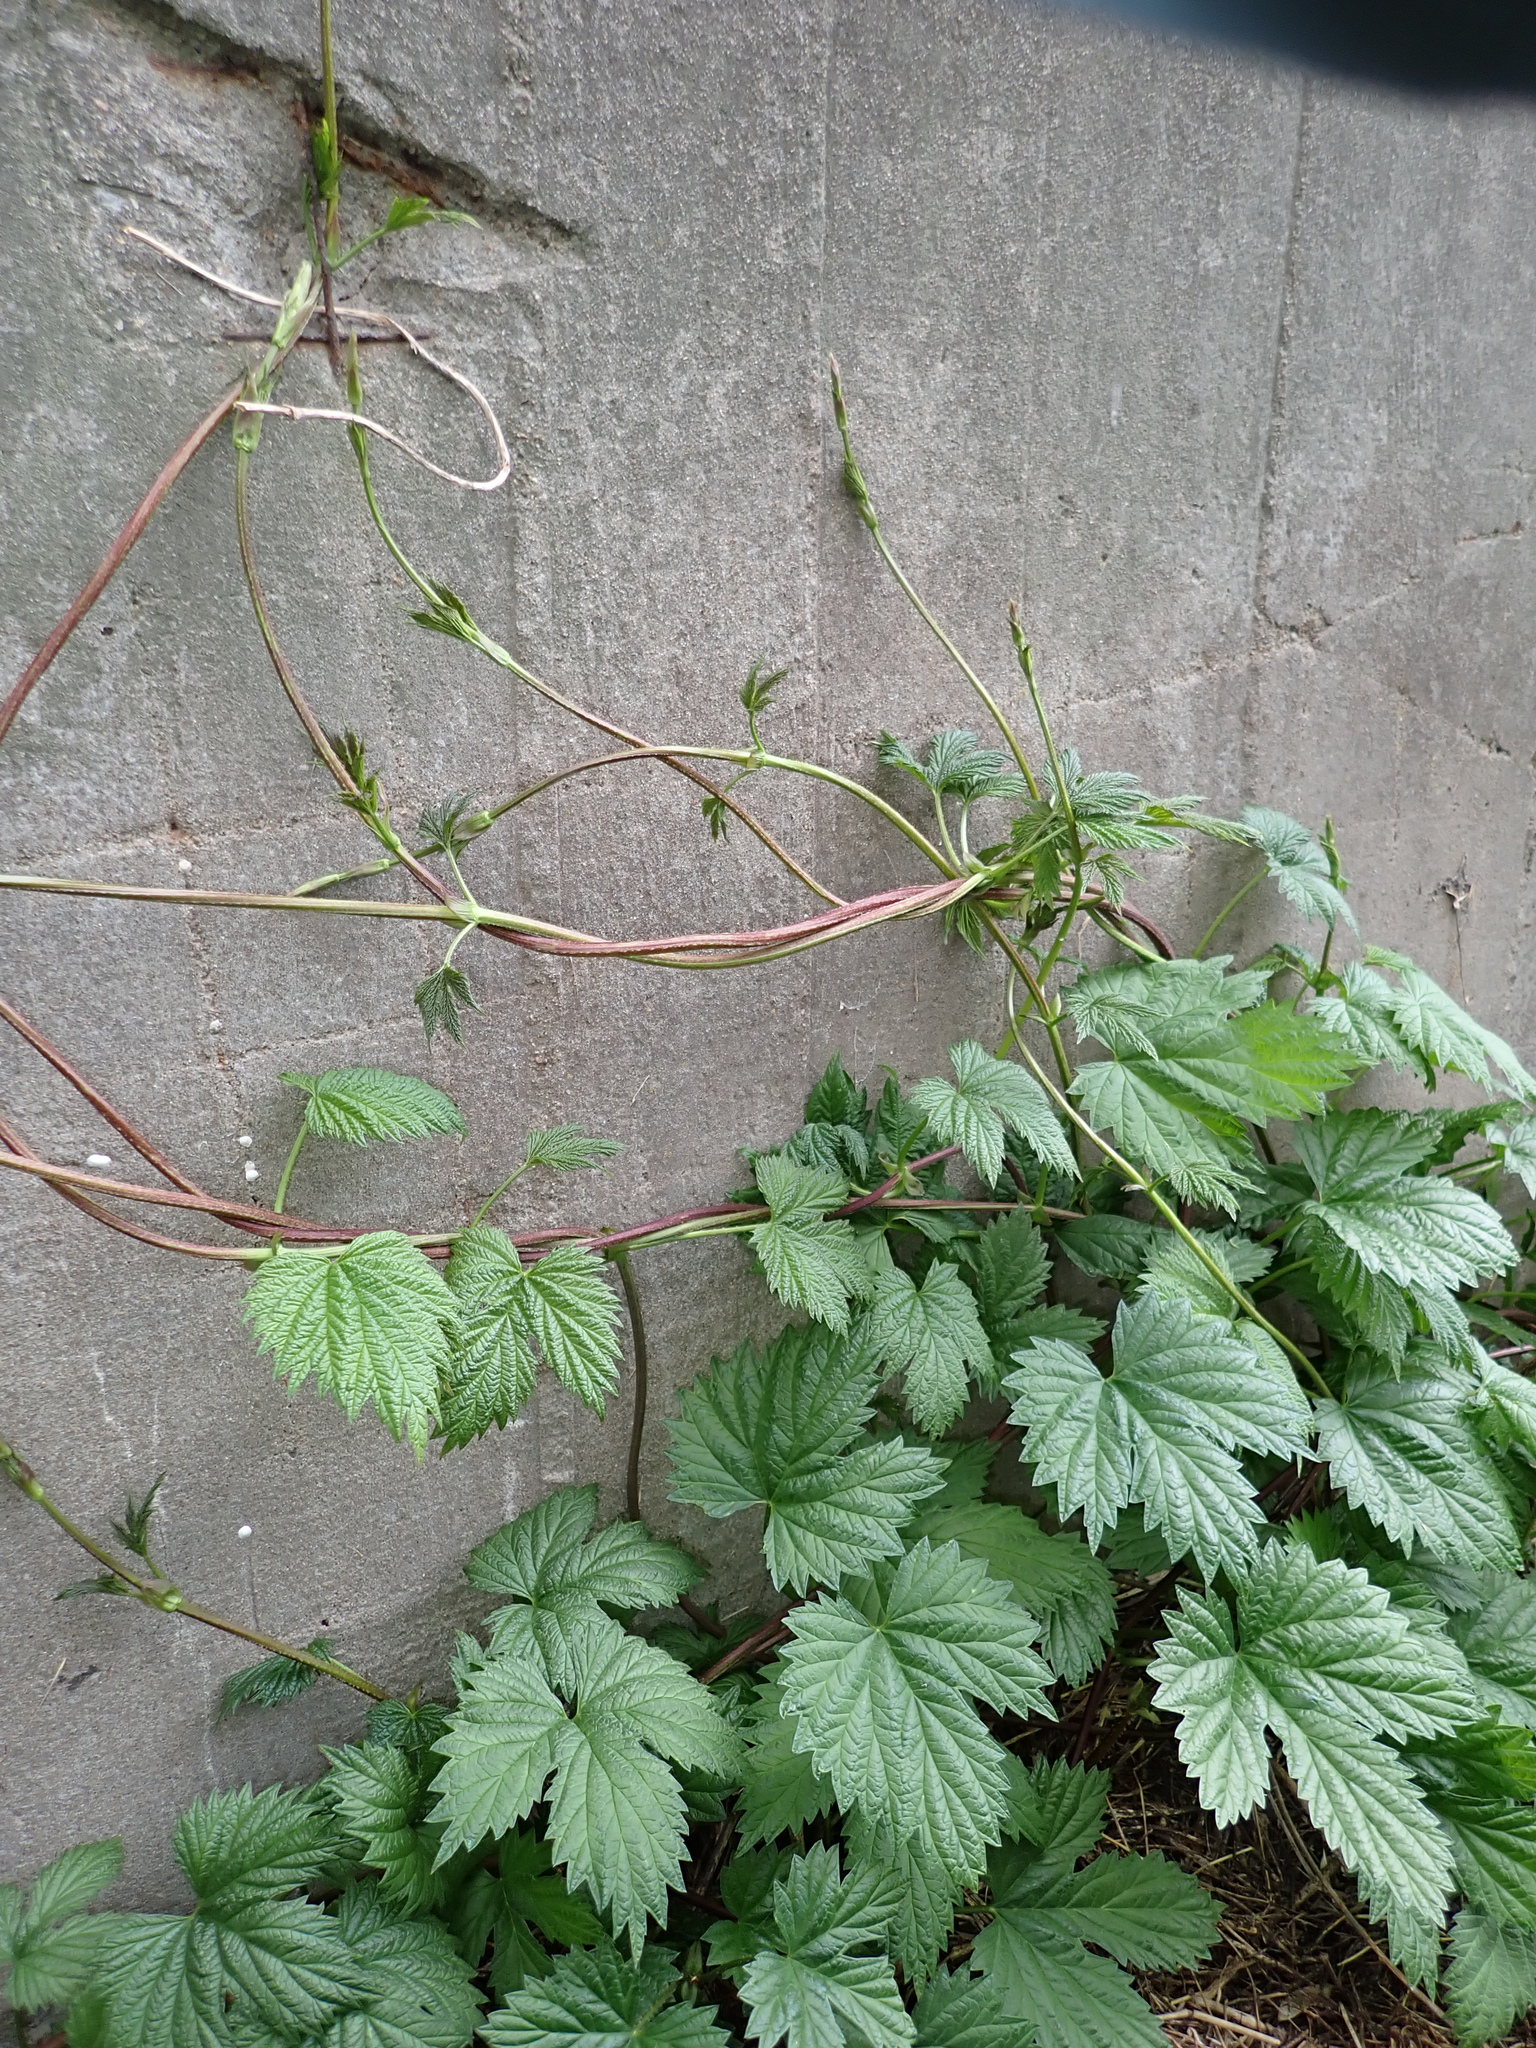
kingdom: Plantae
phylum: Tracheophyta
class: Magnoliopsida
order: Rosales
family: Cannabaceae
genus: Humulus
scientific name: Humulus lupulus
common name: Hop
